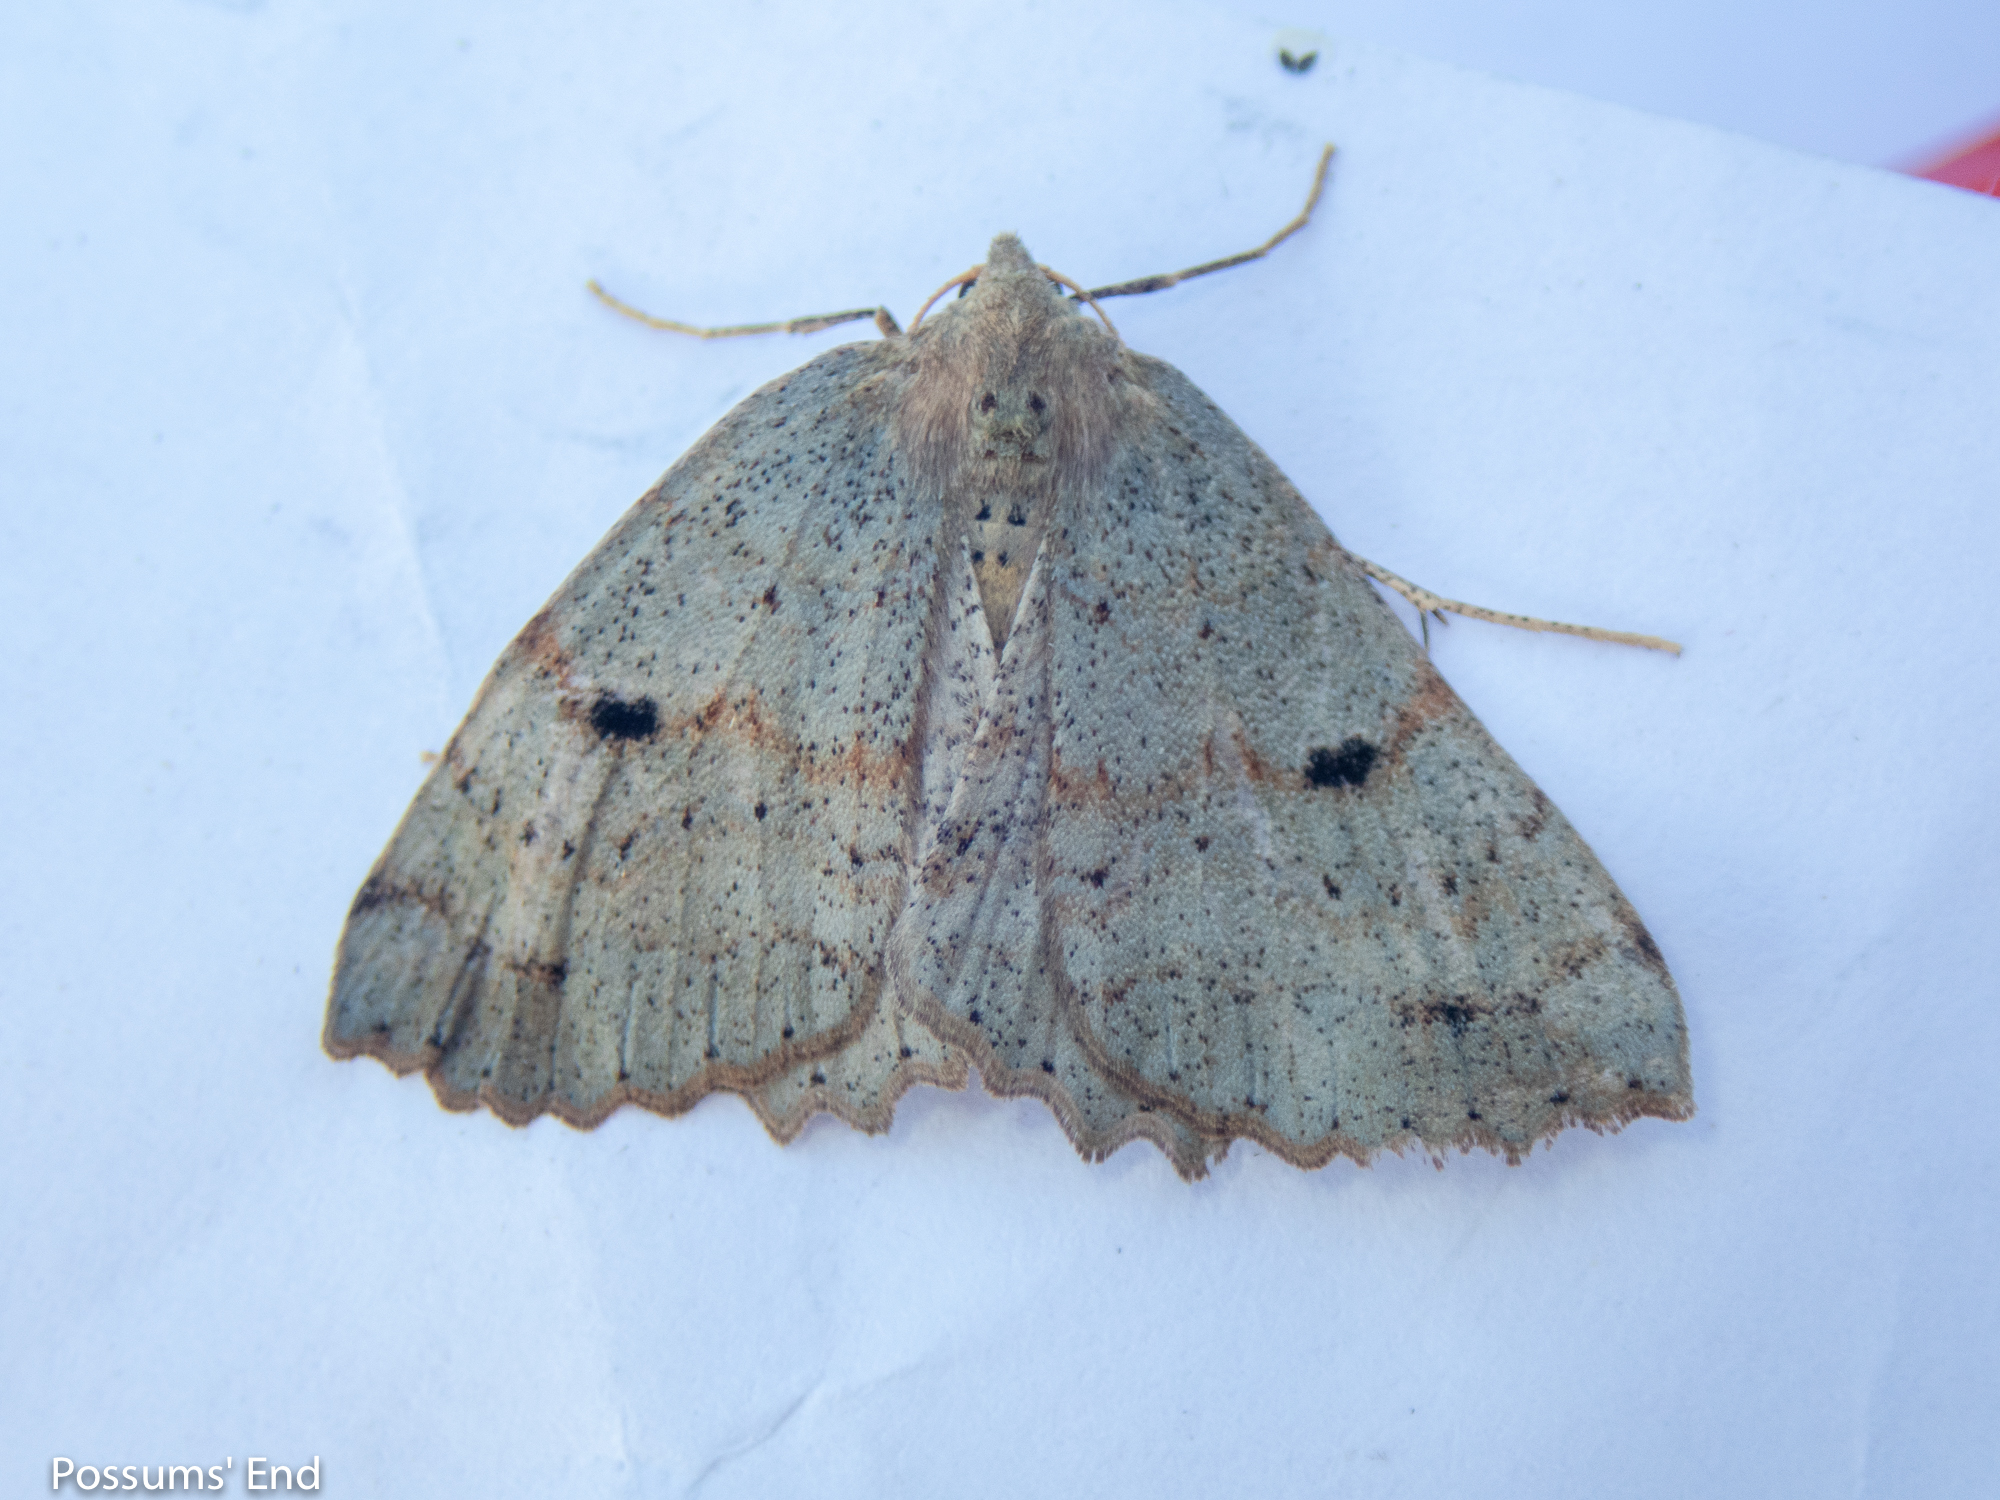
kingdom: Animalia
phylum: Arthropoda
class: Insecta
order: Lepidoptera
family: Geometridae
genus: Cleora
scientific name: Cleora scriptaria
